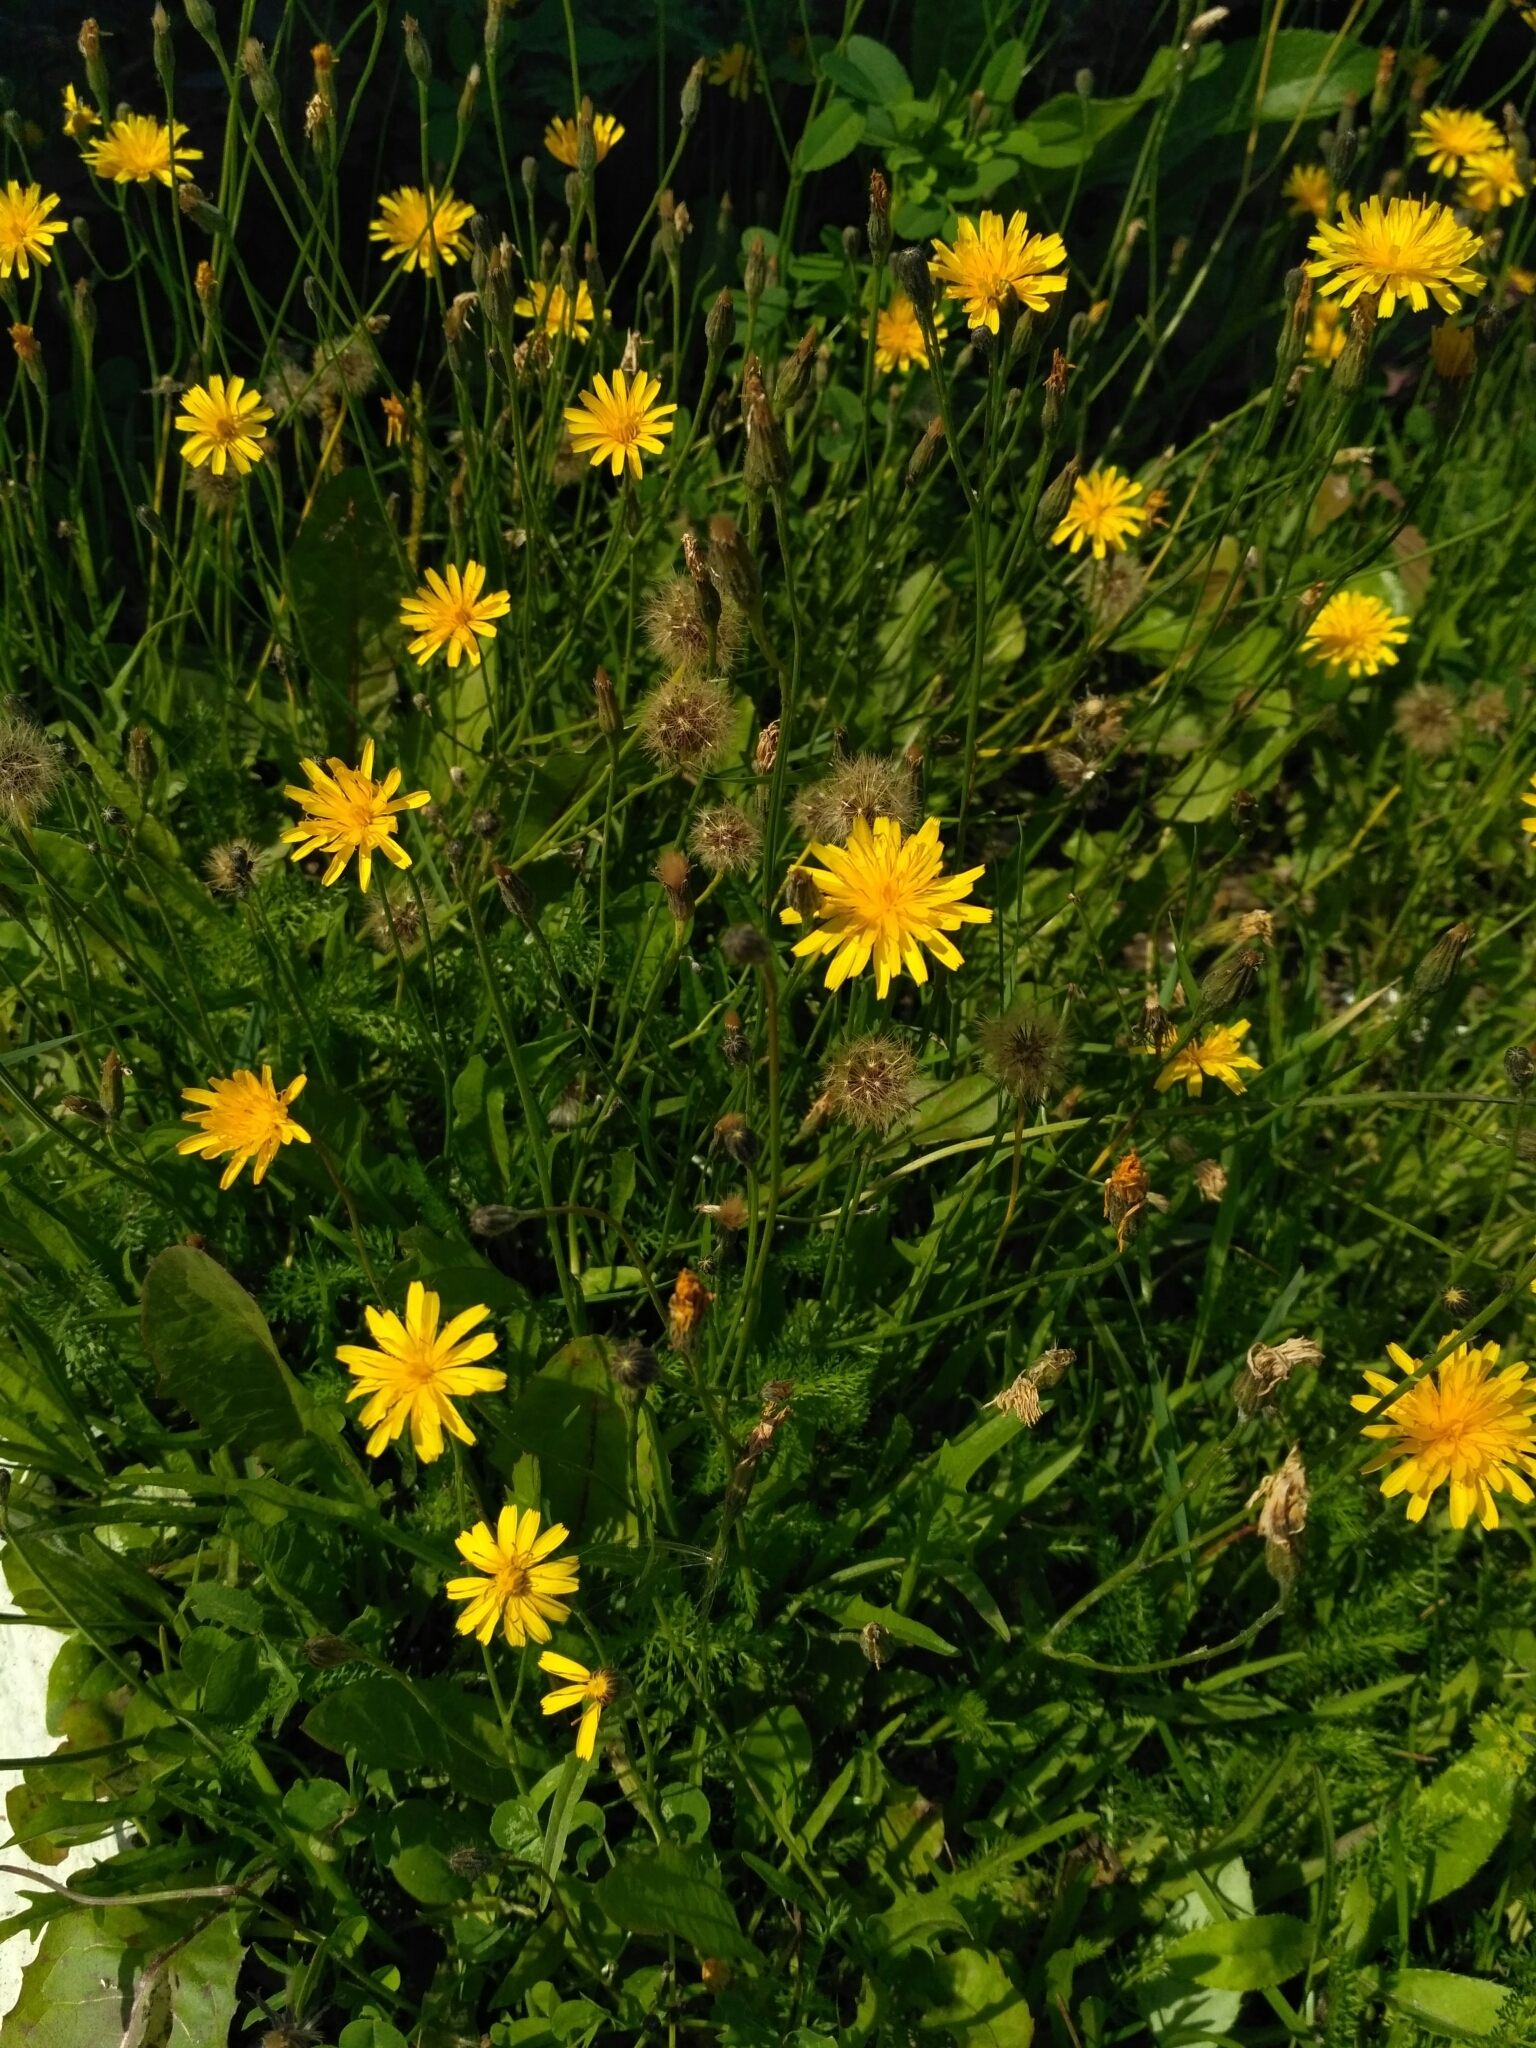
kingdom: Plantae
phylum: Tracheophyta
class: Magnoliopsida
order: Asterales
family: Asteraceae
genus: Scorzoneroides
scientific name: Scorzoneroides autumnalis
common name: Autumn hawkbit
